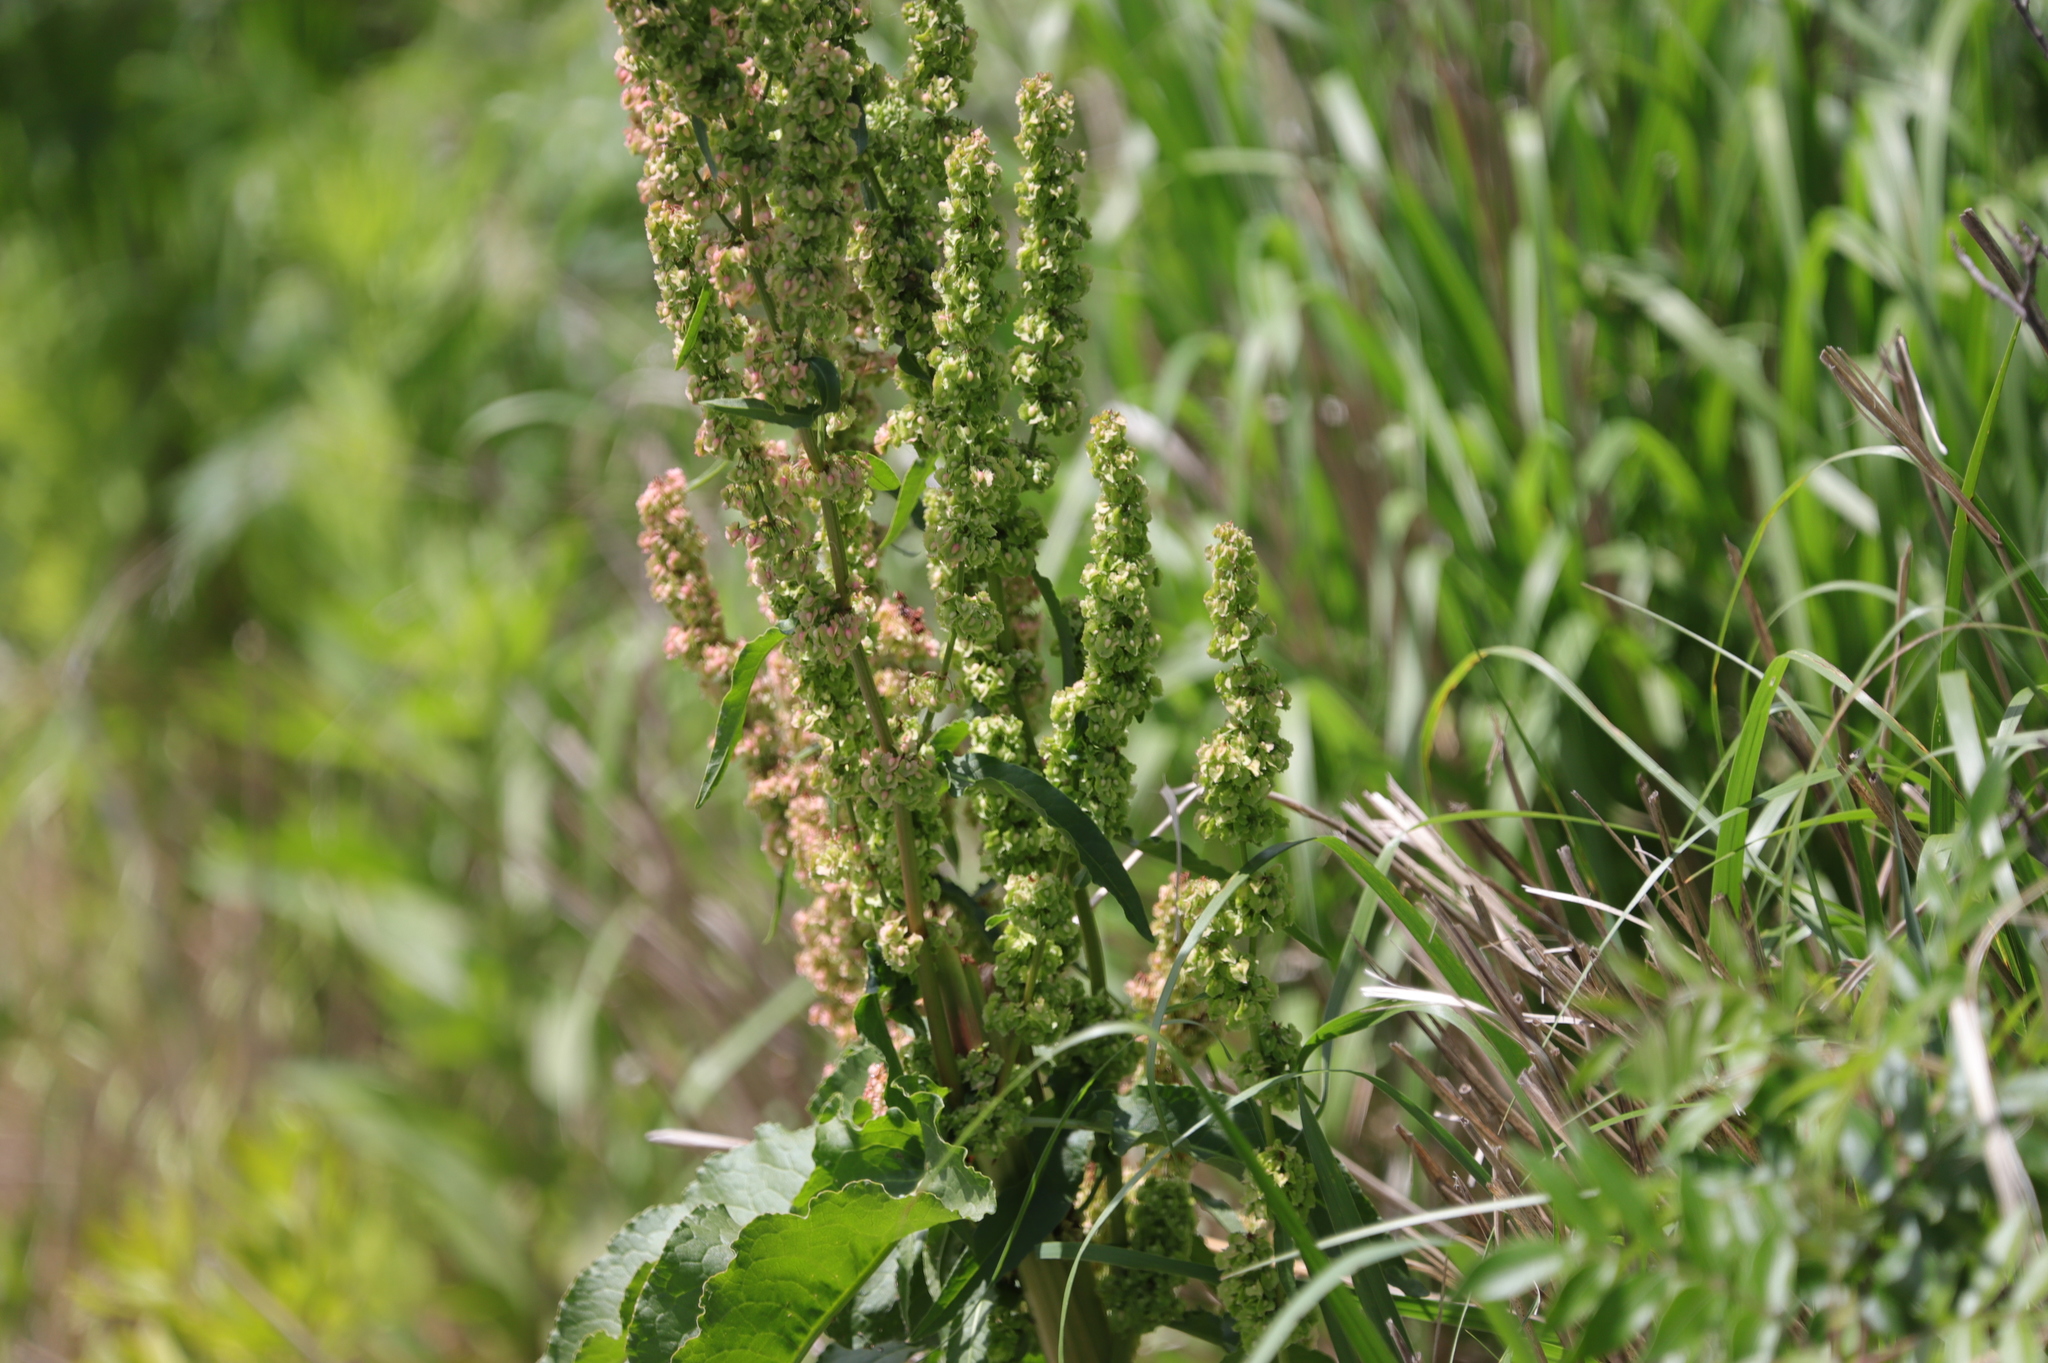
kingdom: Plantae
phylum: Tracheophyta
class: Magnoliopsida
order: Caryophyllales
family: Polygonaceae
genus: Rumex
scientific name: Rumex crispus
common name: Curled dock
